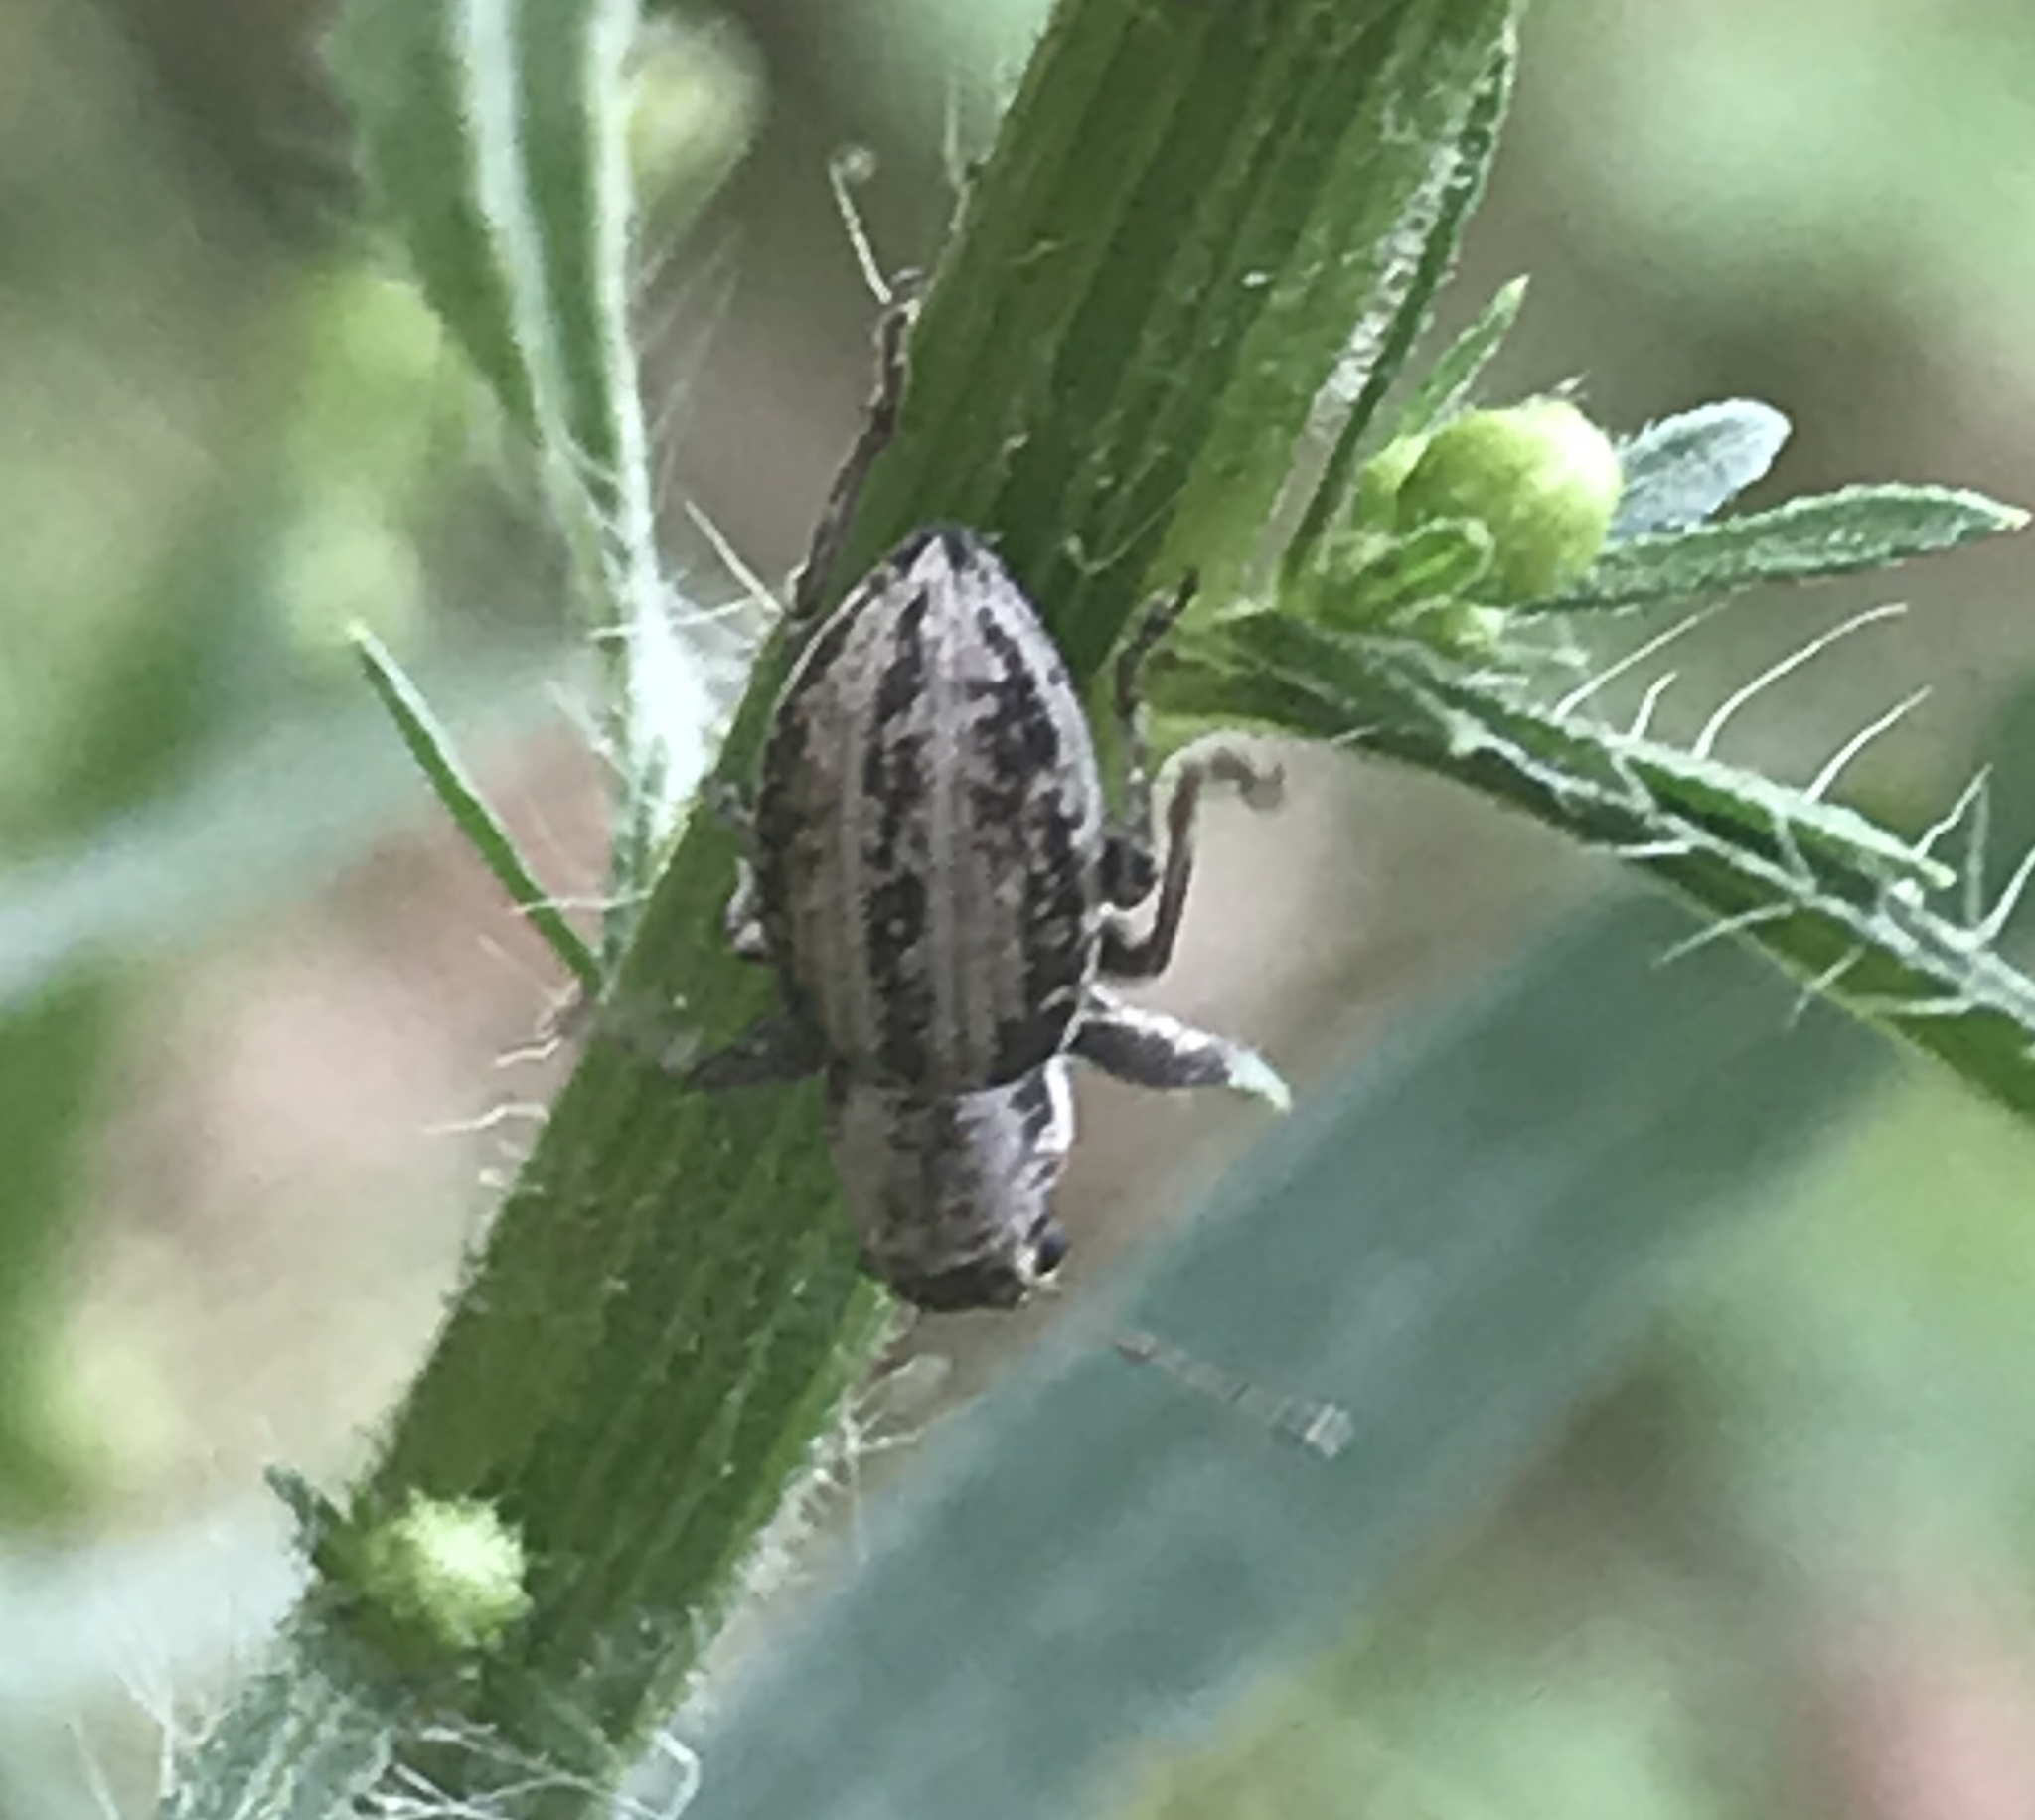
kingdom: Animalia
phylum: Arthropoda
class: Insecta
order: Coleoptera
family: Curculionidae
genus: Atrichonotus
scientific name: Atrichonotus taeniatulus
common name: Small lucerne weevil
